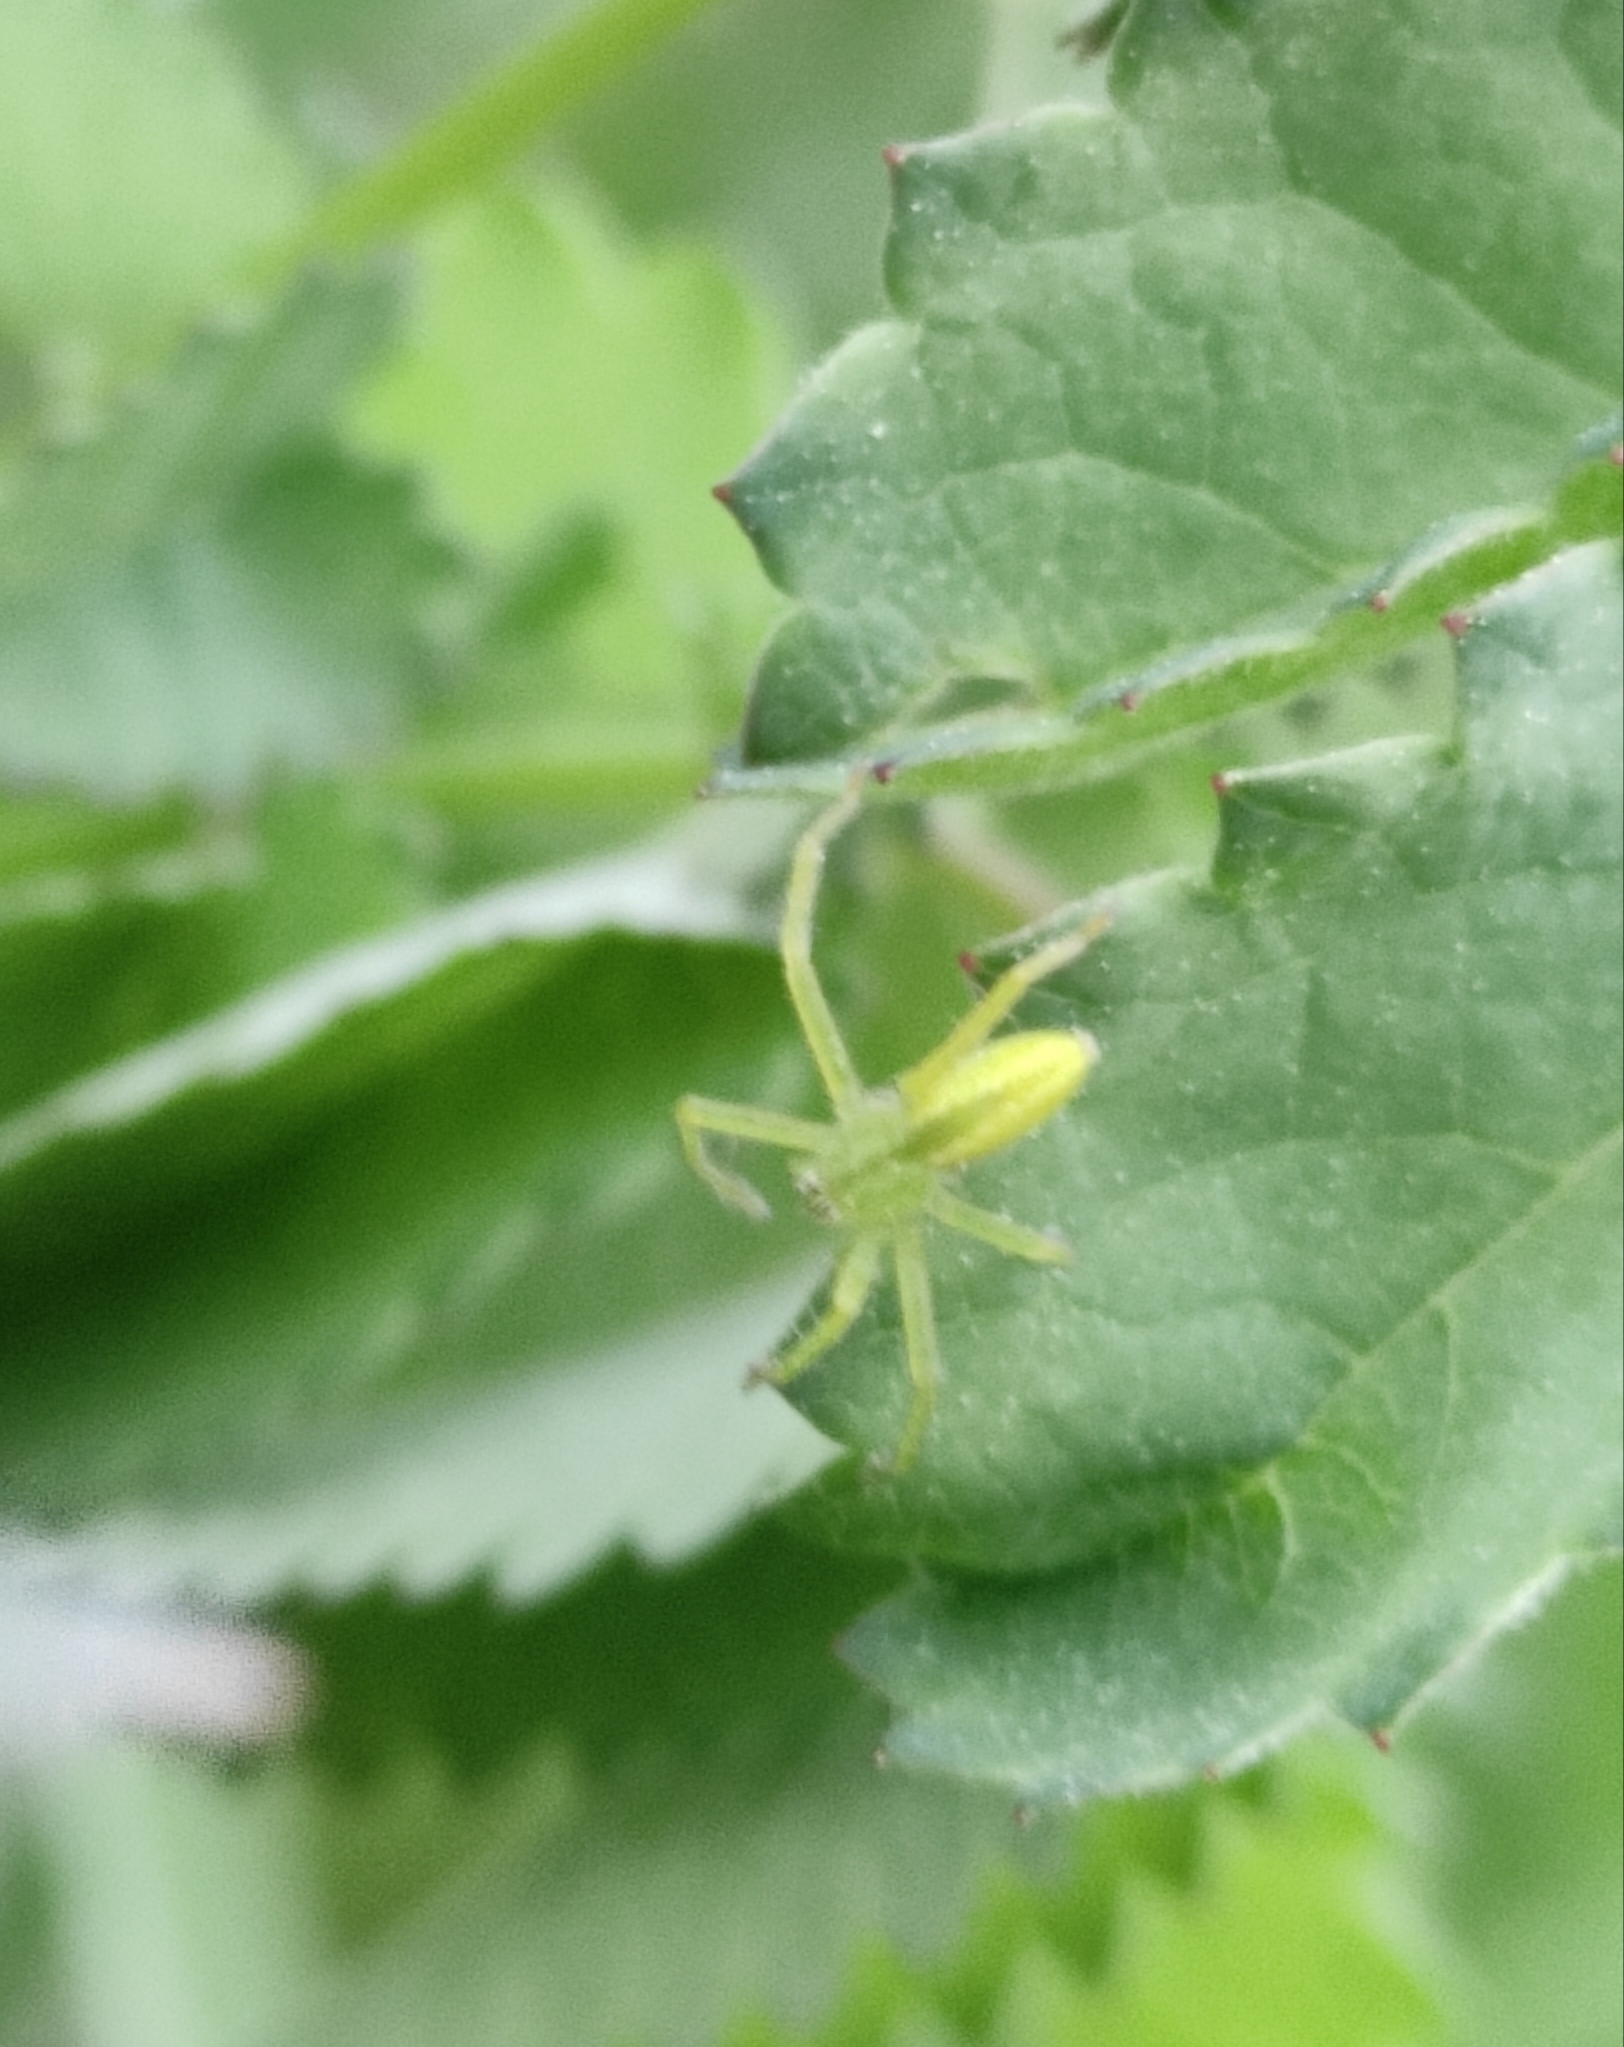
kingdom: Animalia
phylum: Arthropoda
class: Arachnida
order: Araneae
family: Sparassidae
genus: Micrommata
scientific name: Micrommata virescens
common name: Green spider
